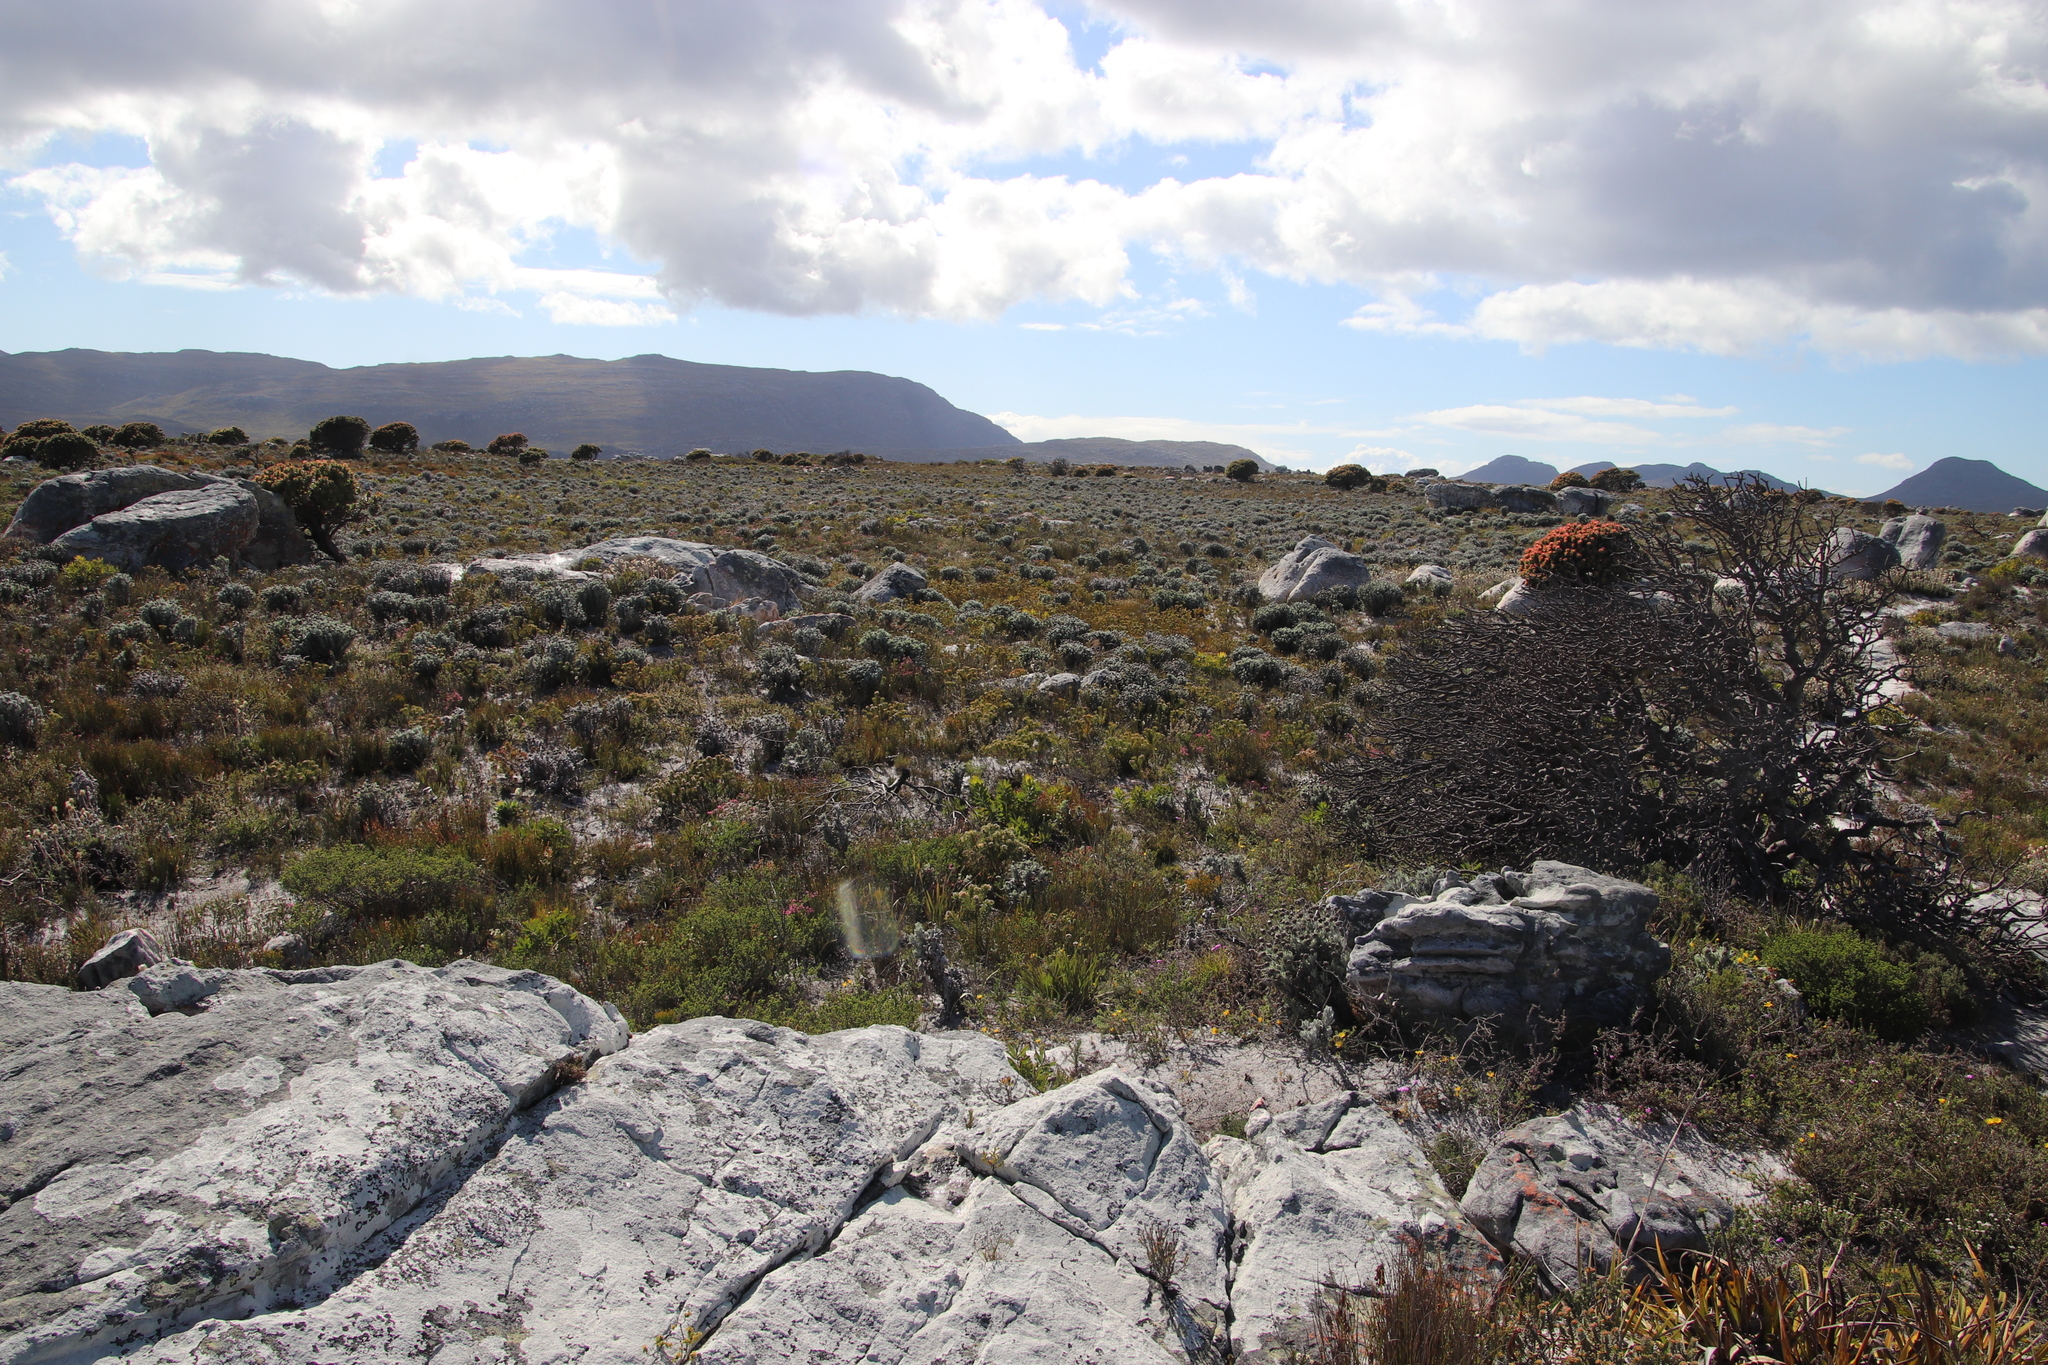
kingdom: Plantae
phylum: Tracheophyta
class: Magnoliopsida
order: Asterales
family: Asteraceae
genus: Syncarpha
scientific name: Syncarpha vestita
